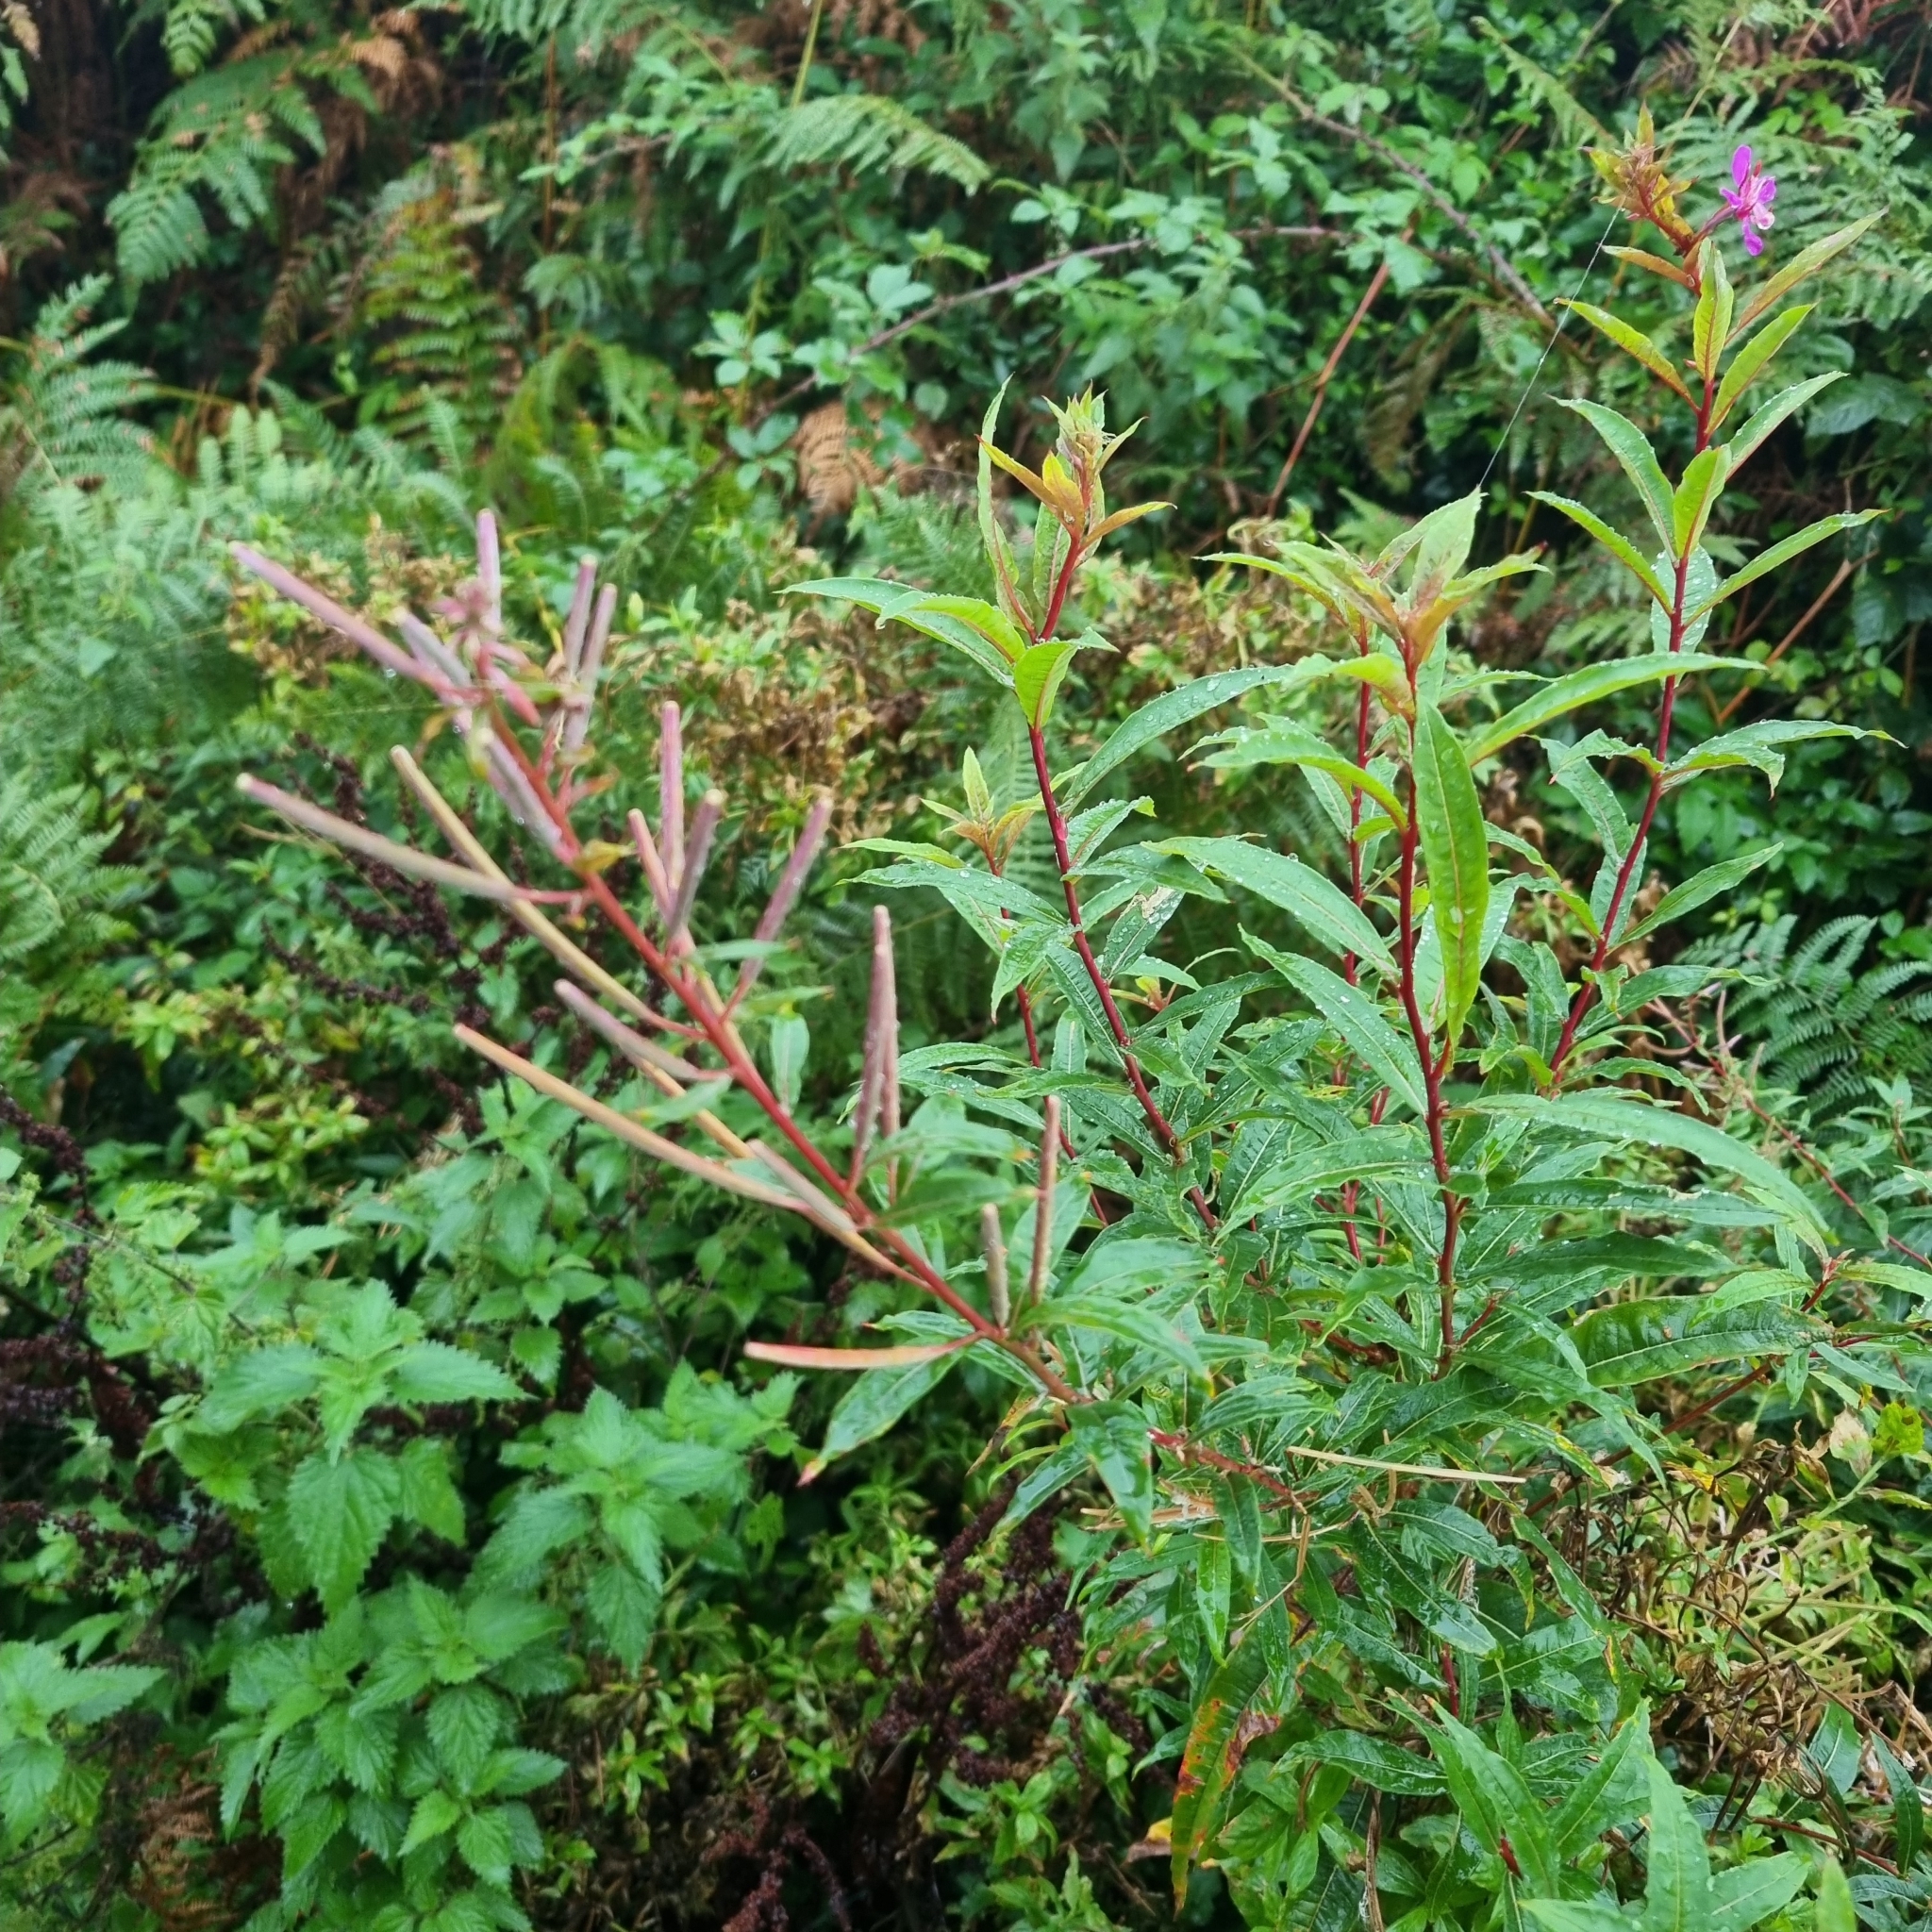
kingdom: Plantae
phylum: Tracheophyta
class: Magnoliopsida
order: Myrtales
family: Onagraceae
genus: Chamaenerion
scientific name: Chamaenerion angustifolium
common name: Fireweed
